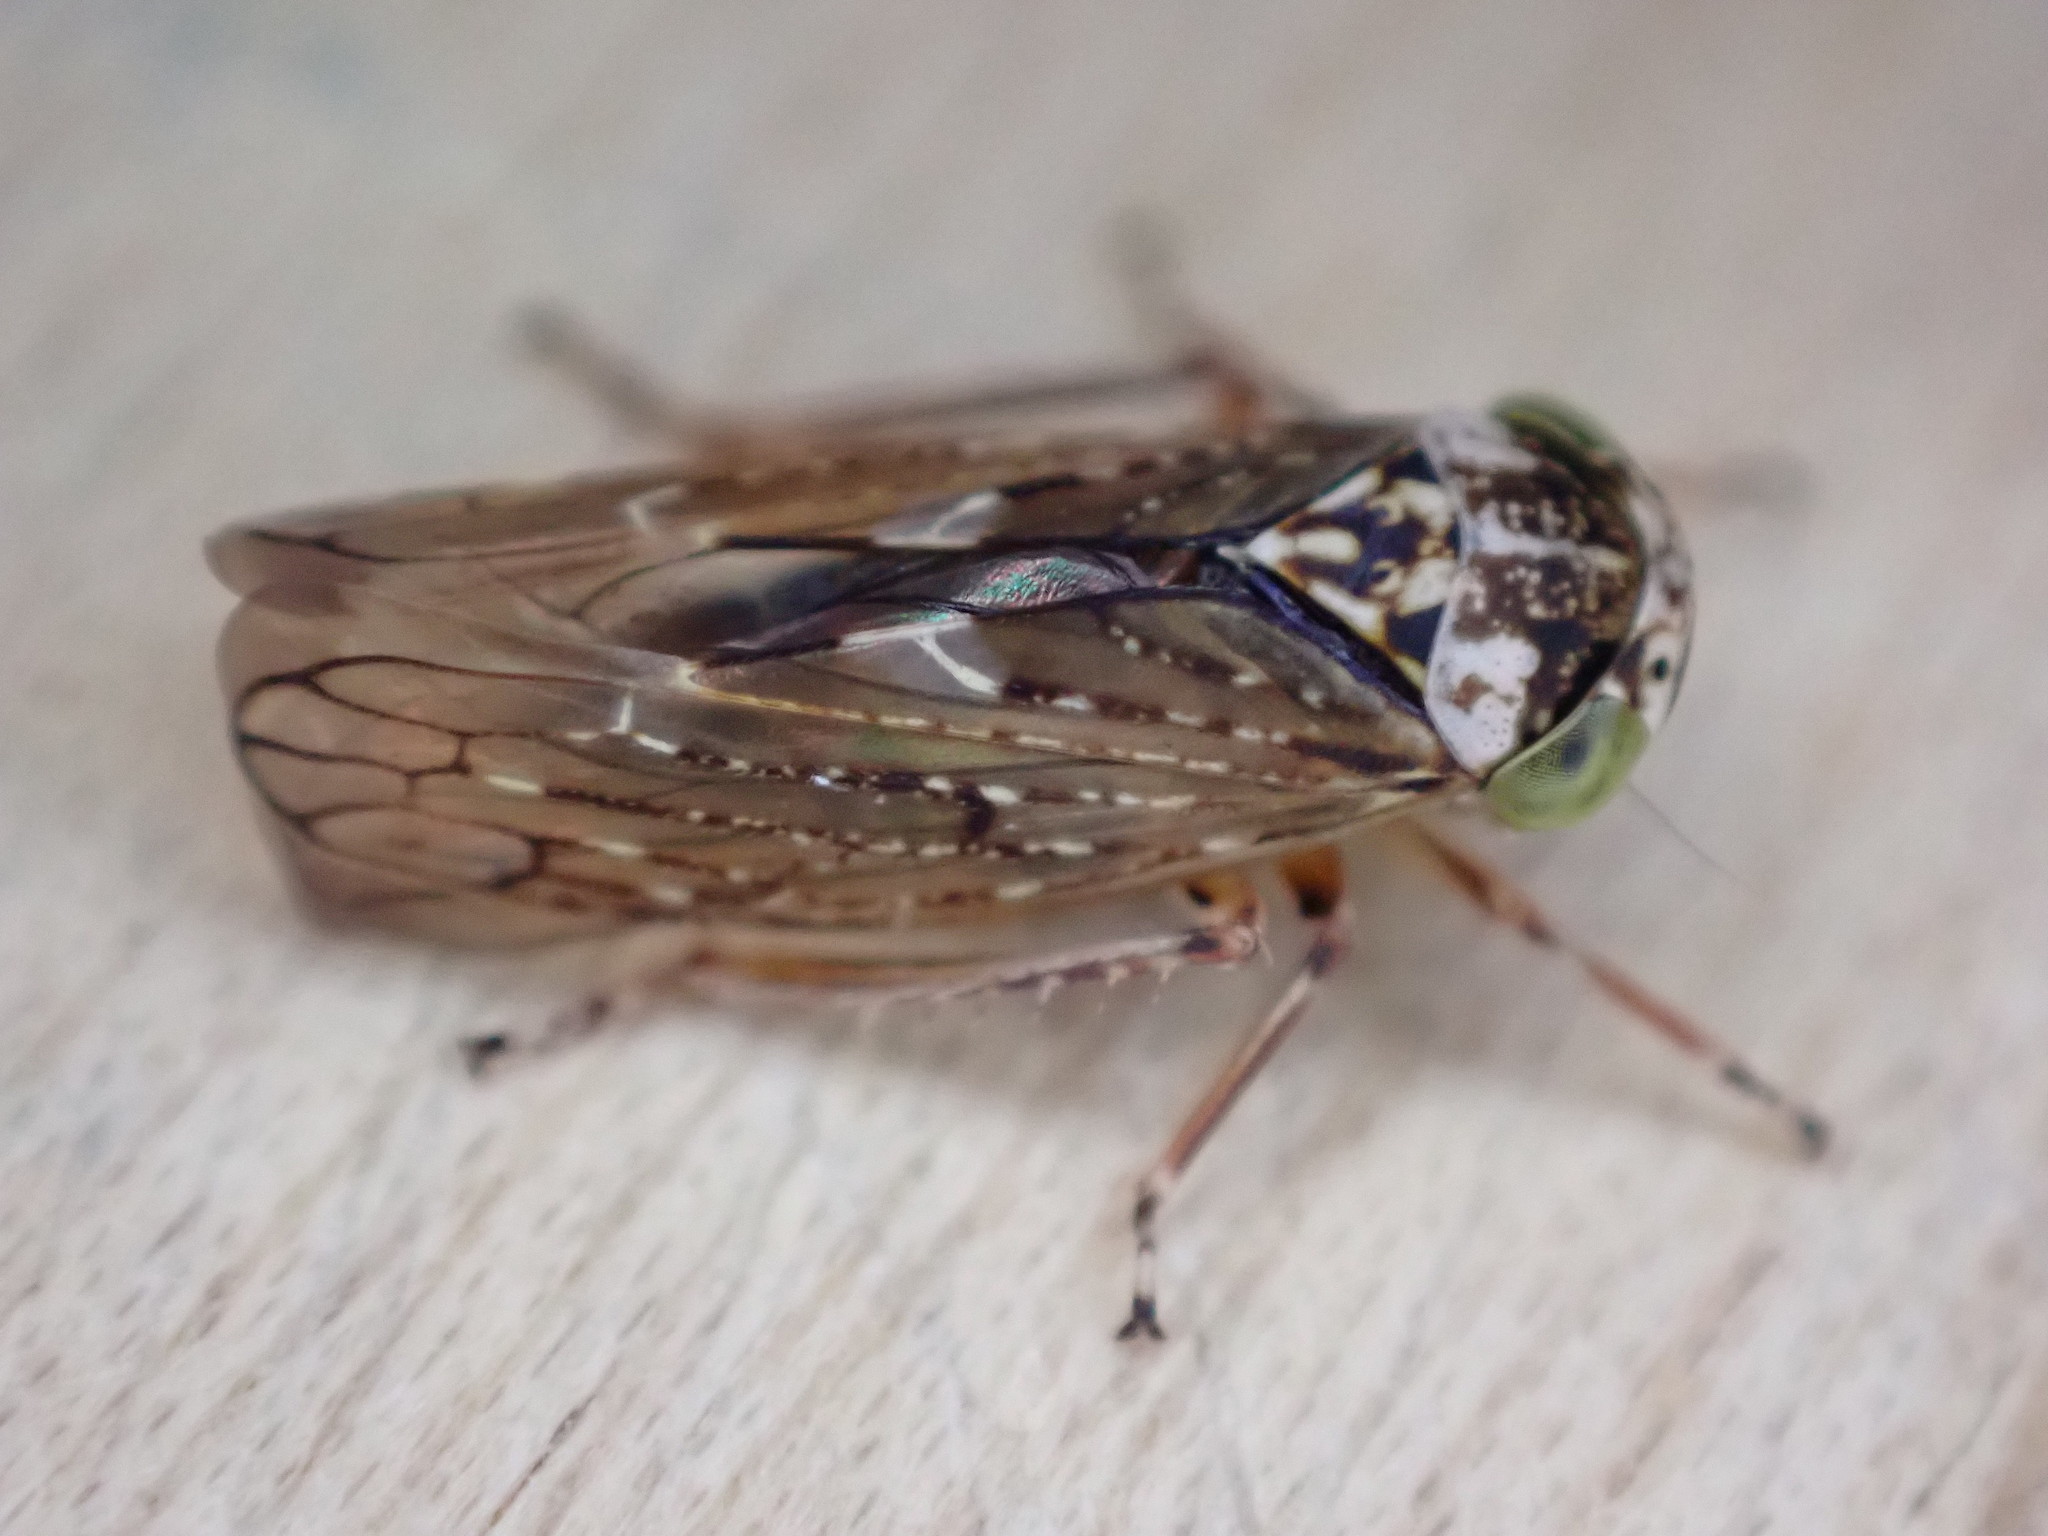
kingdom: Animalia
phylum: Arthropoda
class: Insecta
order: Hemiptera
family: Cicadellidae
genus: Acericerus
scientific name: Acericerus heydenii
